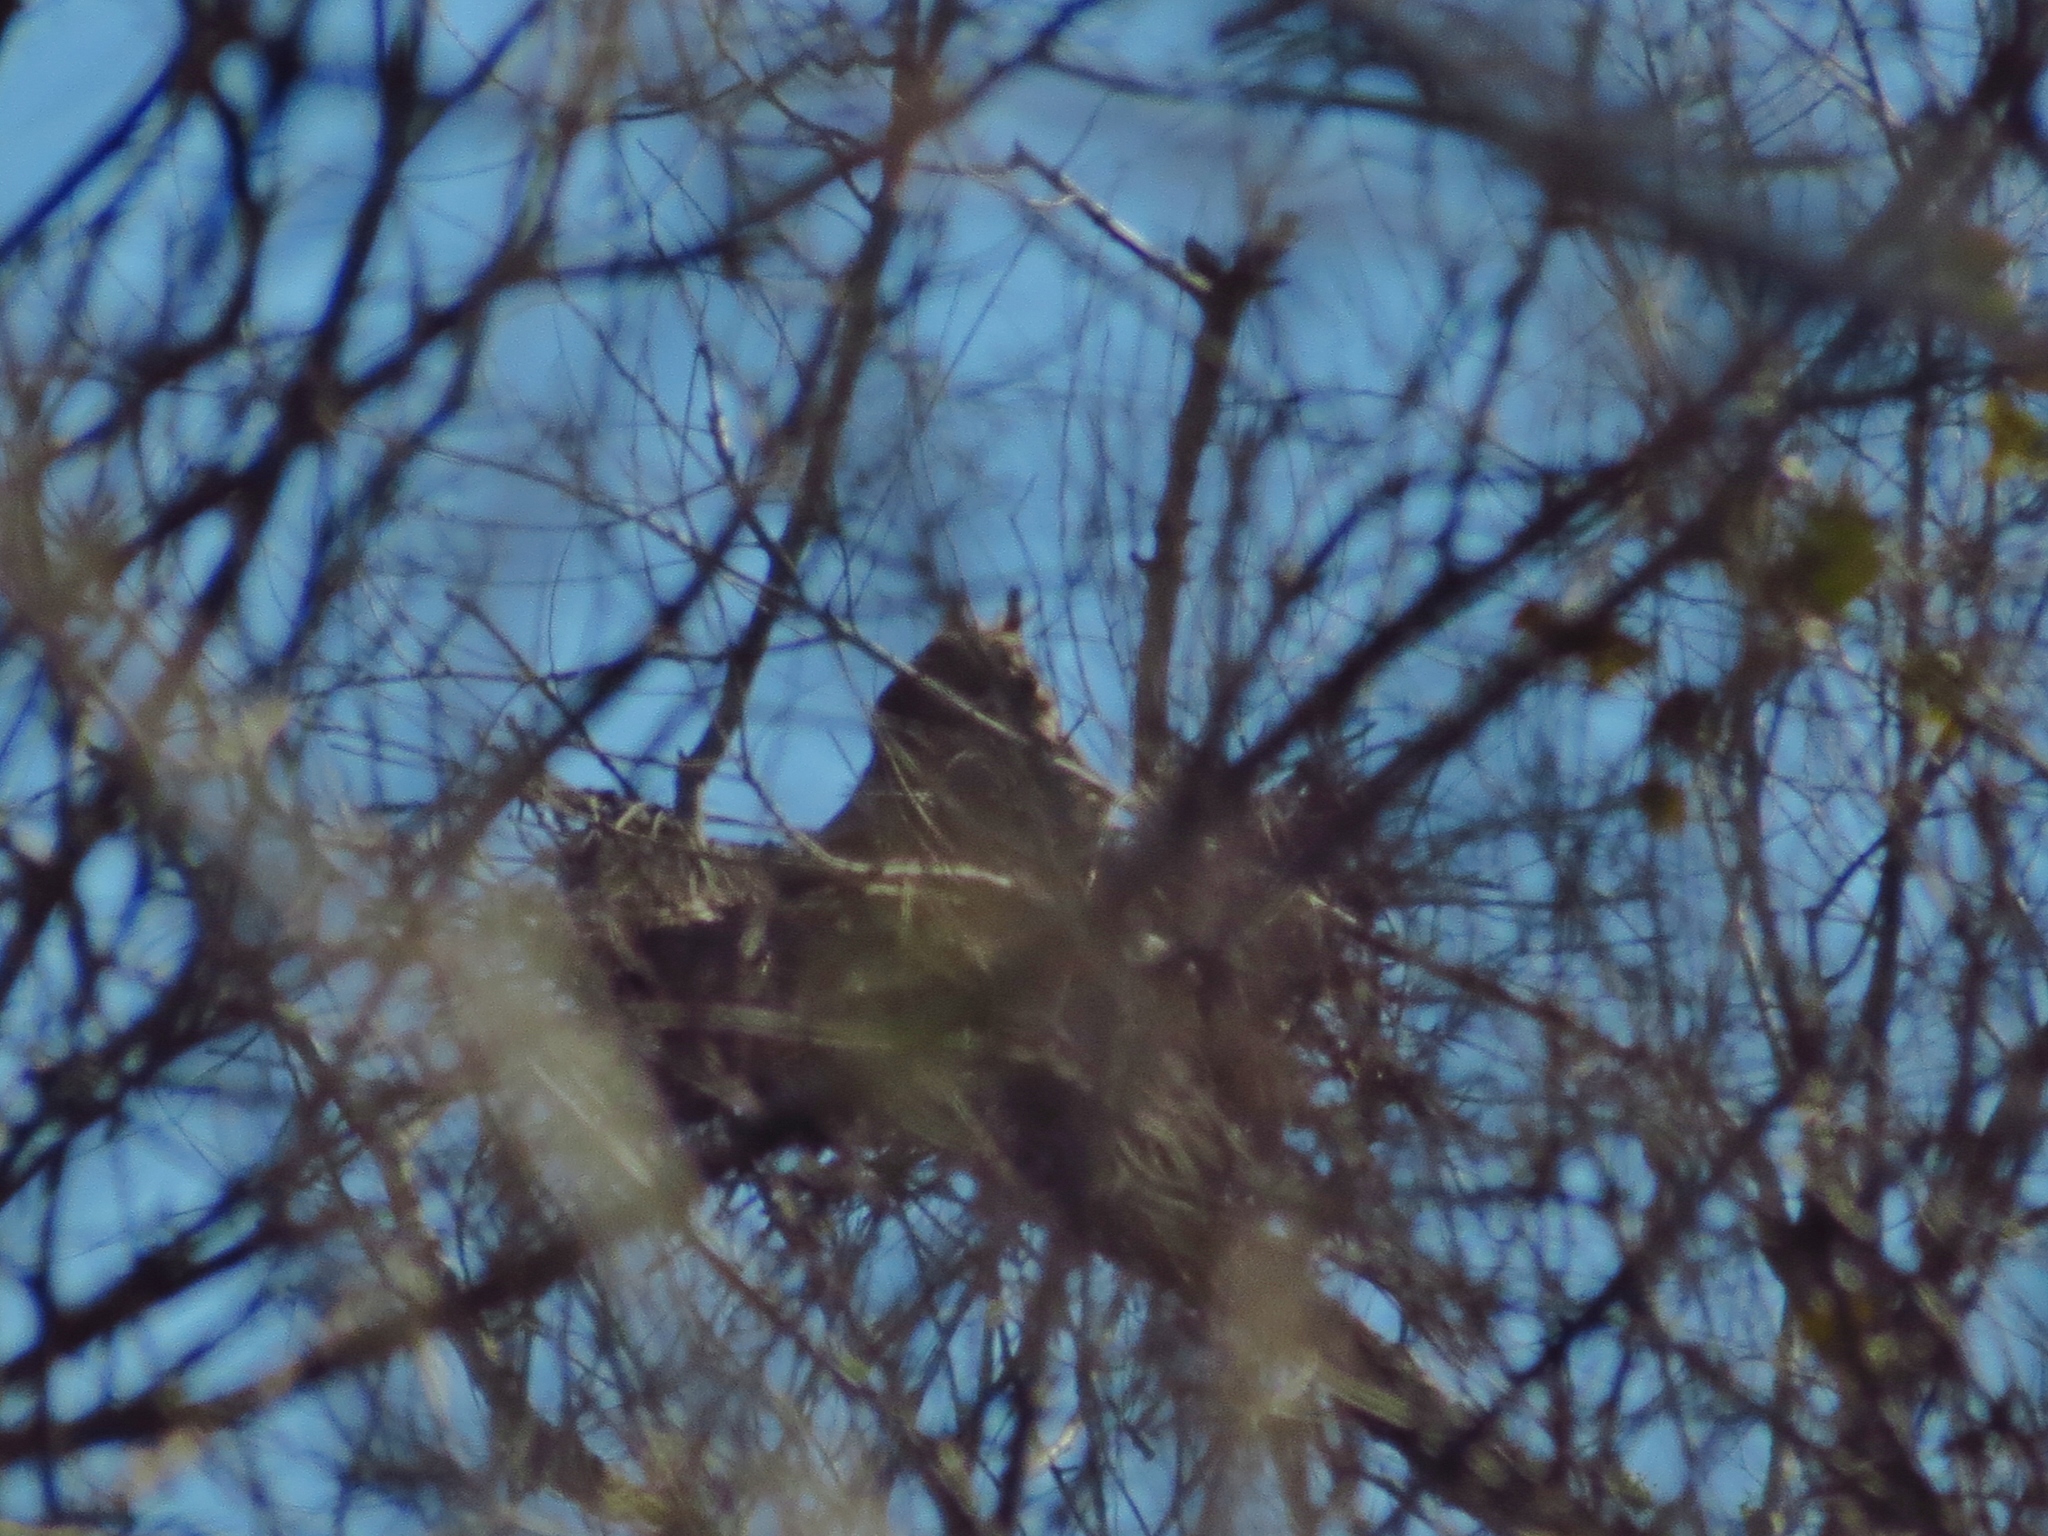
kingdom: Animalia
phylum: Chordata
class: Aves
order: Strigiformes
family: Strigidae
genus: Bubo
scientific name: Bubo virginianus
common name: Great horned owl
